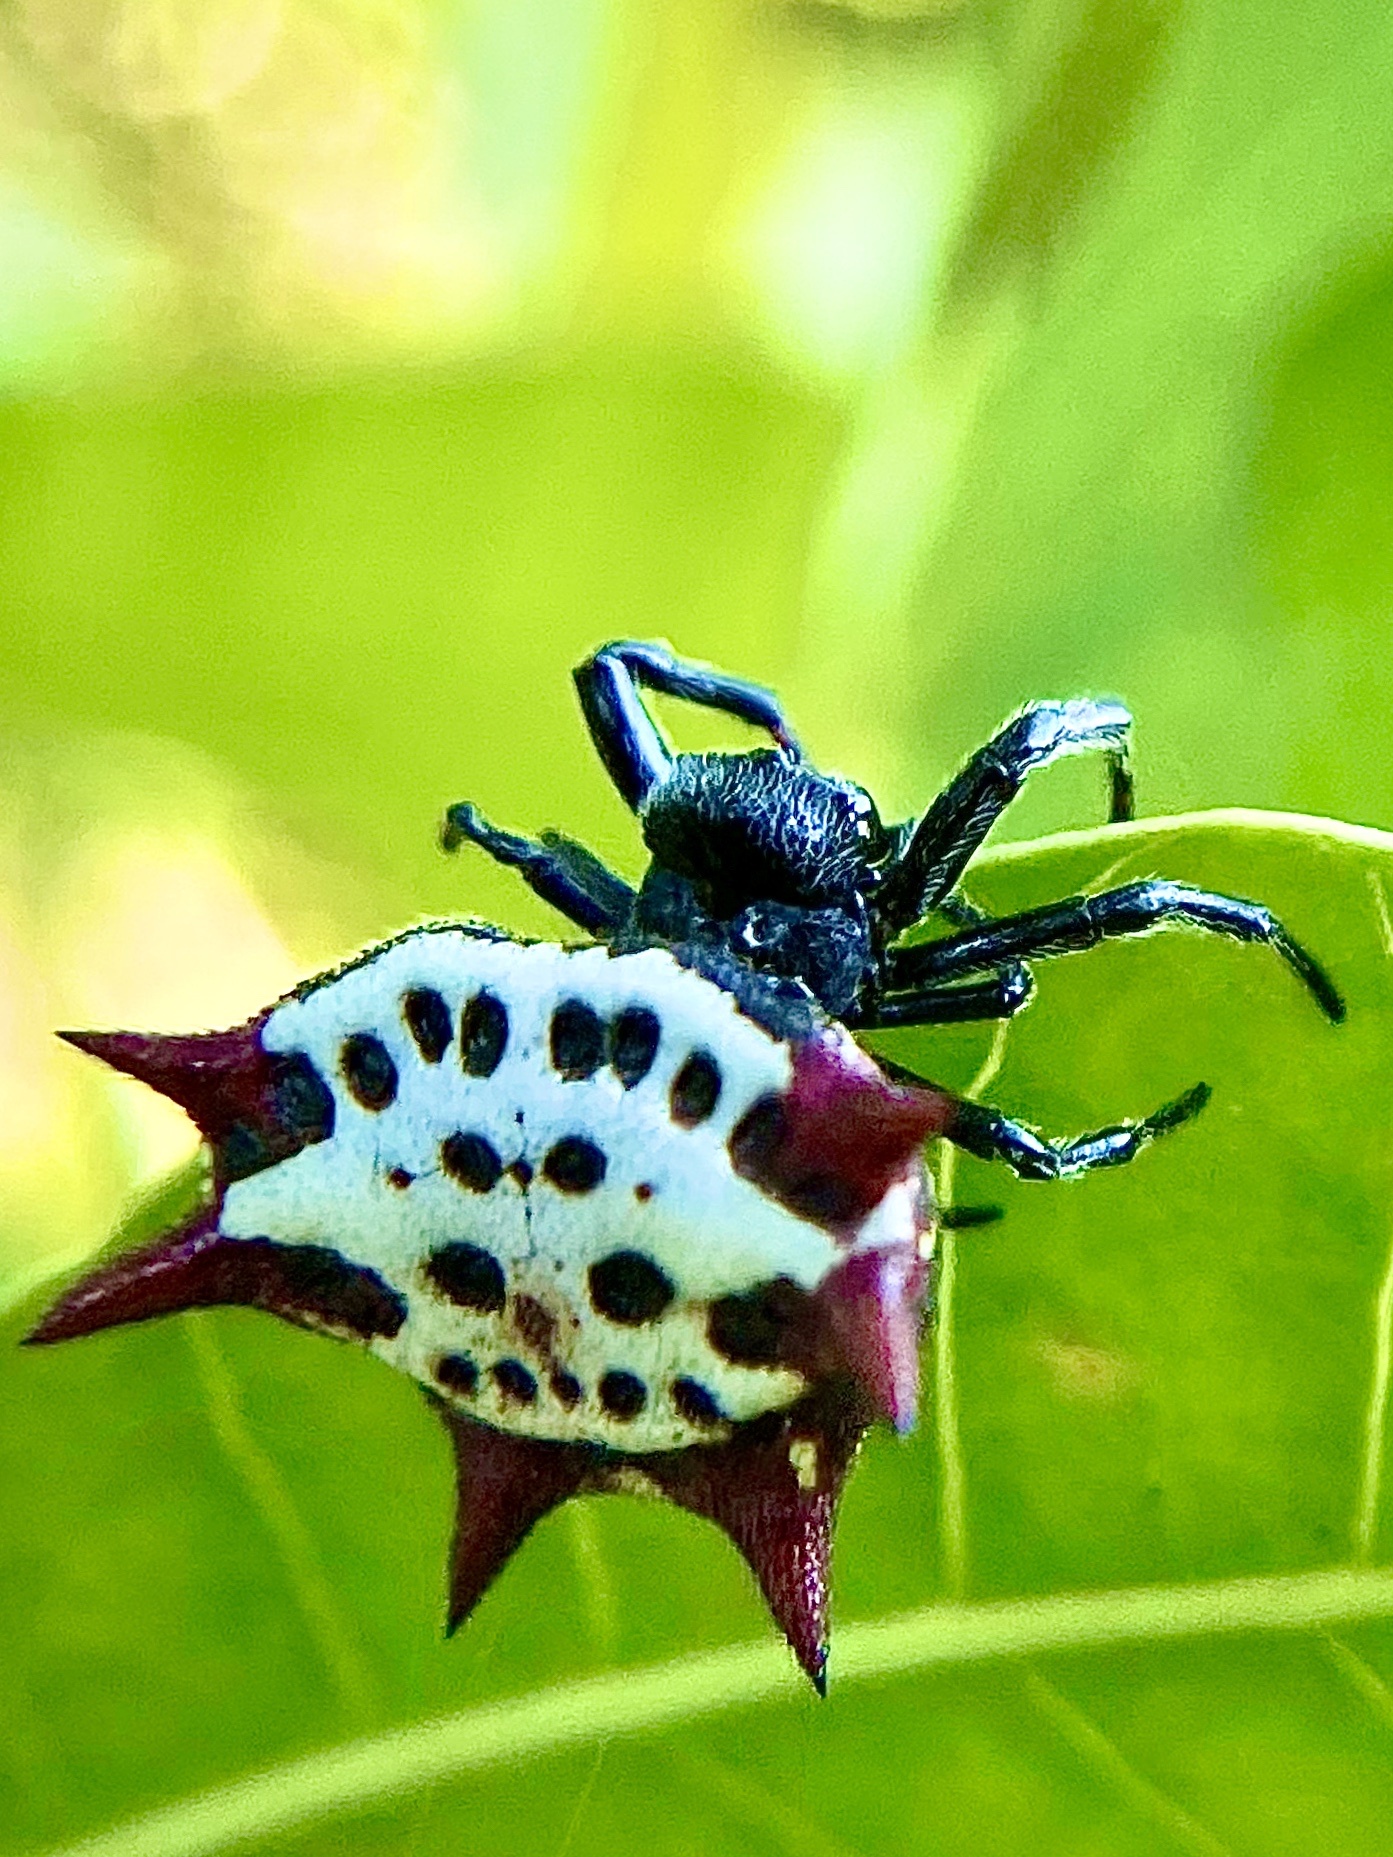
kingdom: Animalia
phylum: Arthropoda
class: Arachnida
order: Araneae
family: Araneidae
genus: Gasteracantha
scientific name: Gasteracantha cancriformis
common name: Orb weavers
